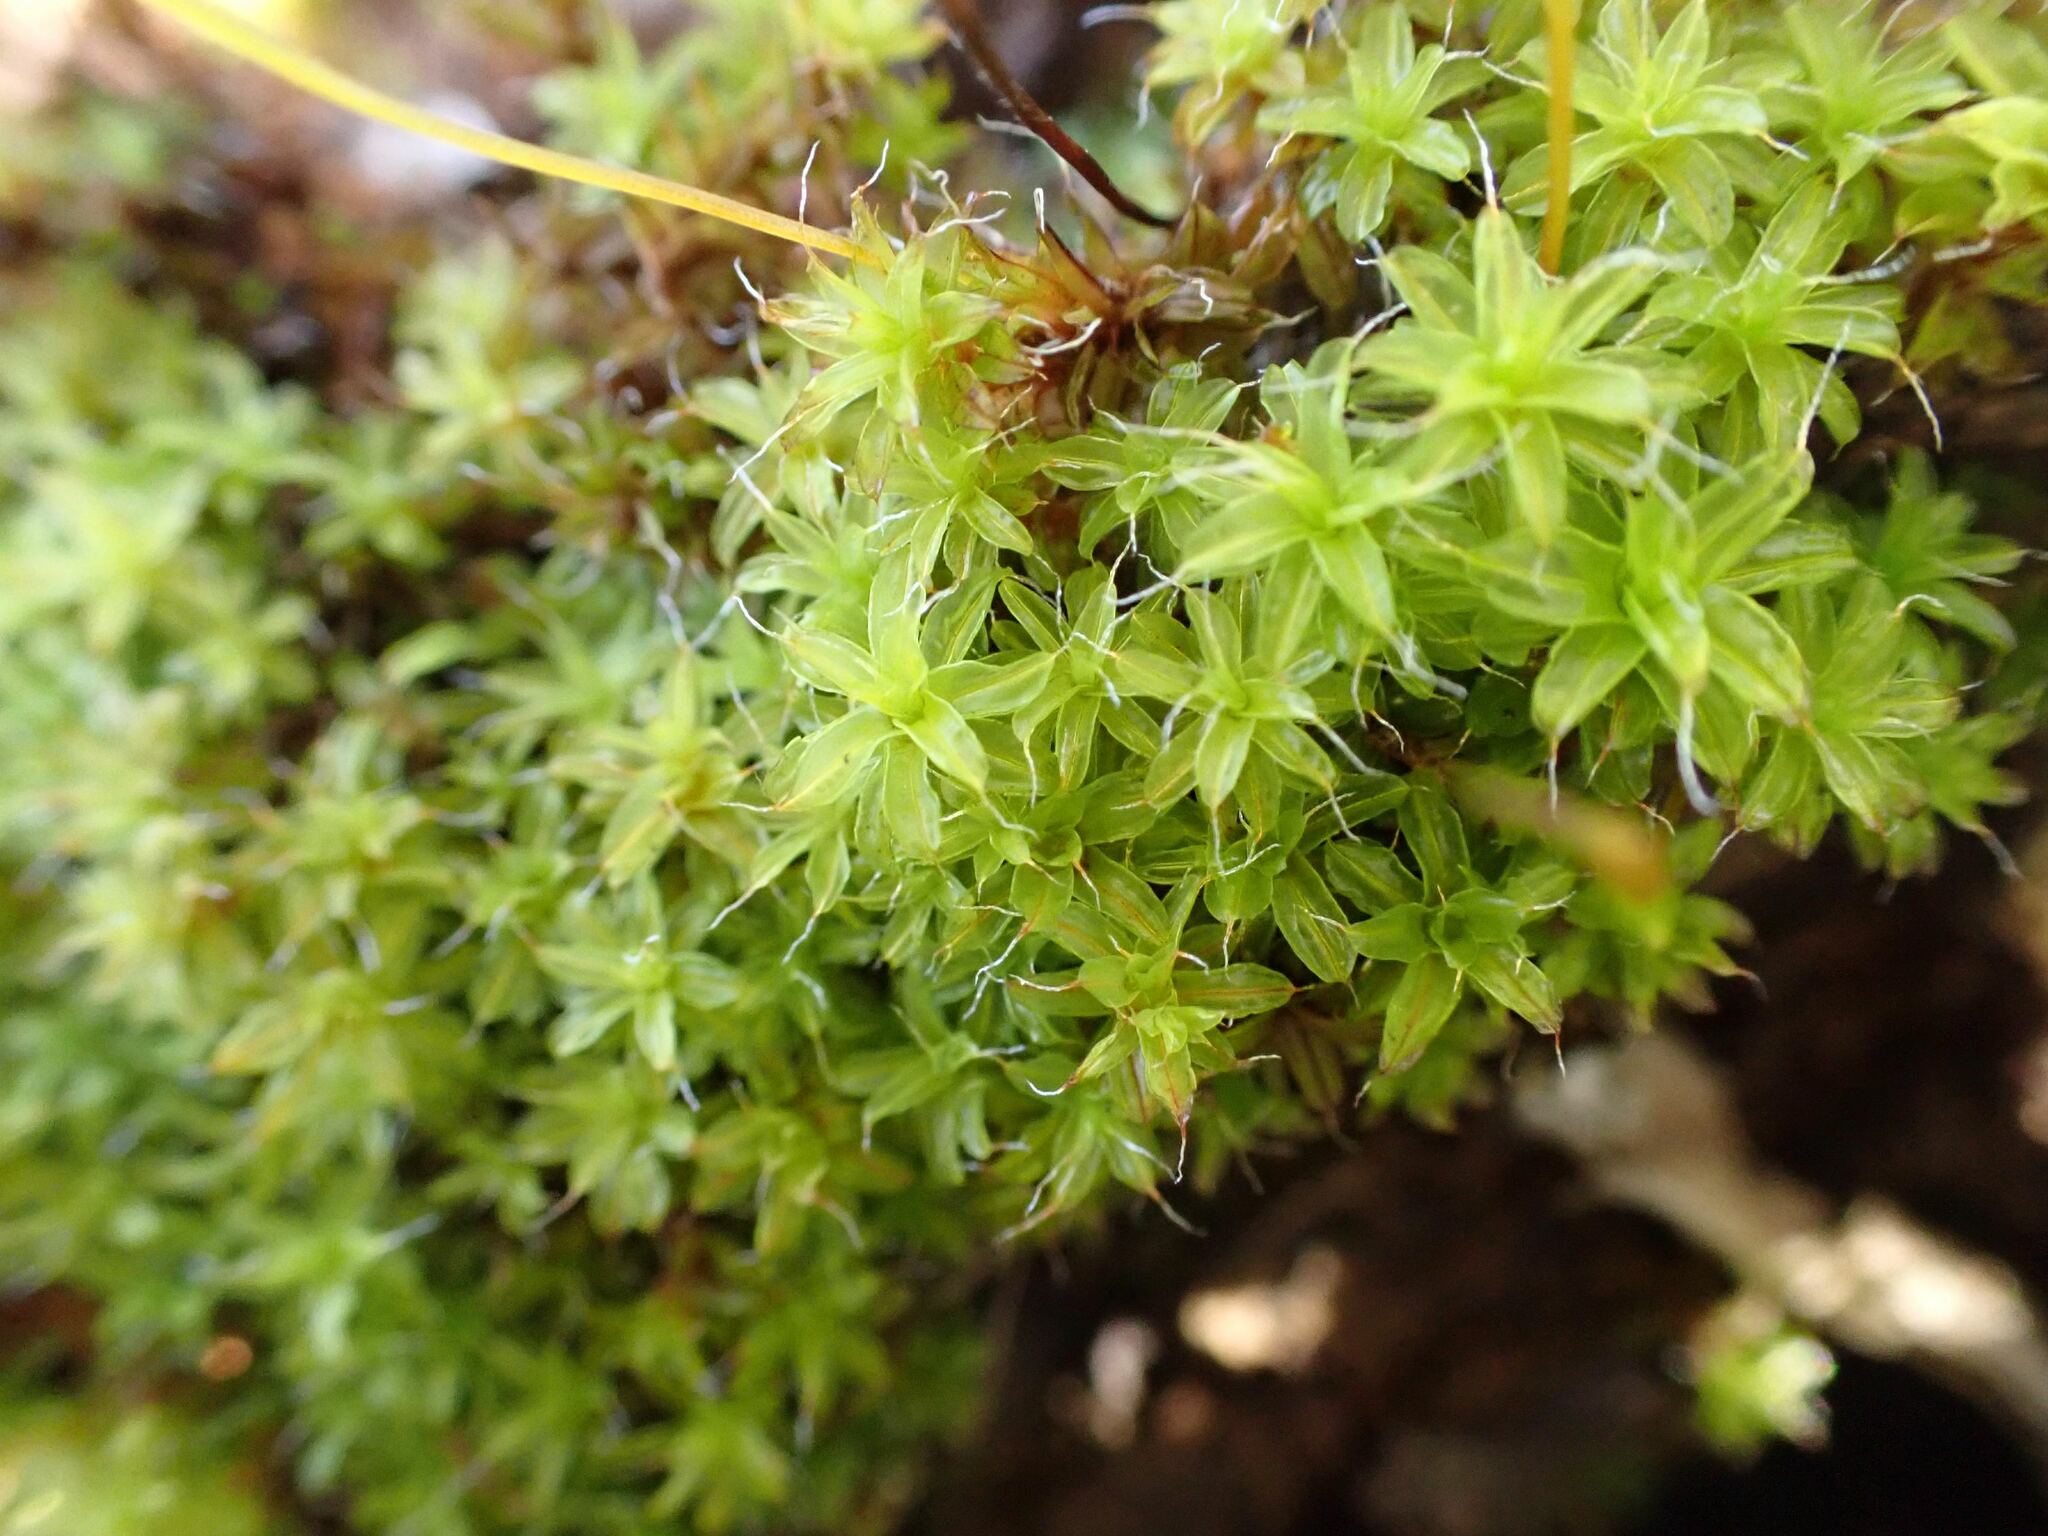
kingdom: Plantae
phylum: Bryophyta
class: Bryopsida
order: Pottiales
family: Pottiaceae
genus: Syntrichia
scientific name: Syntrichia ruralis
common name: Sidewalk screw moss
